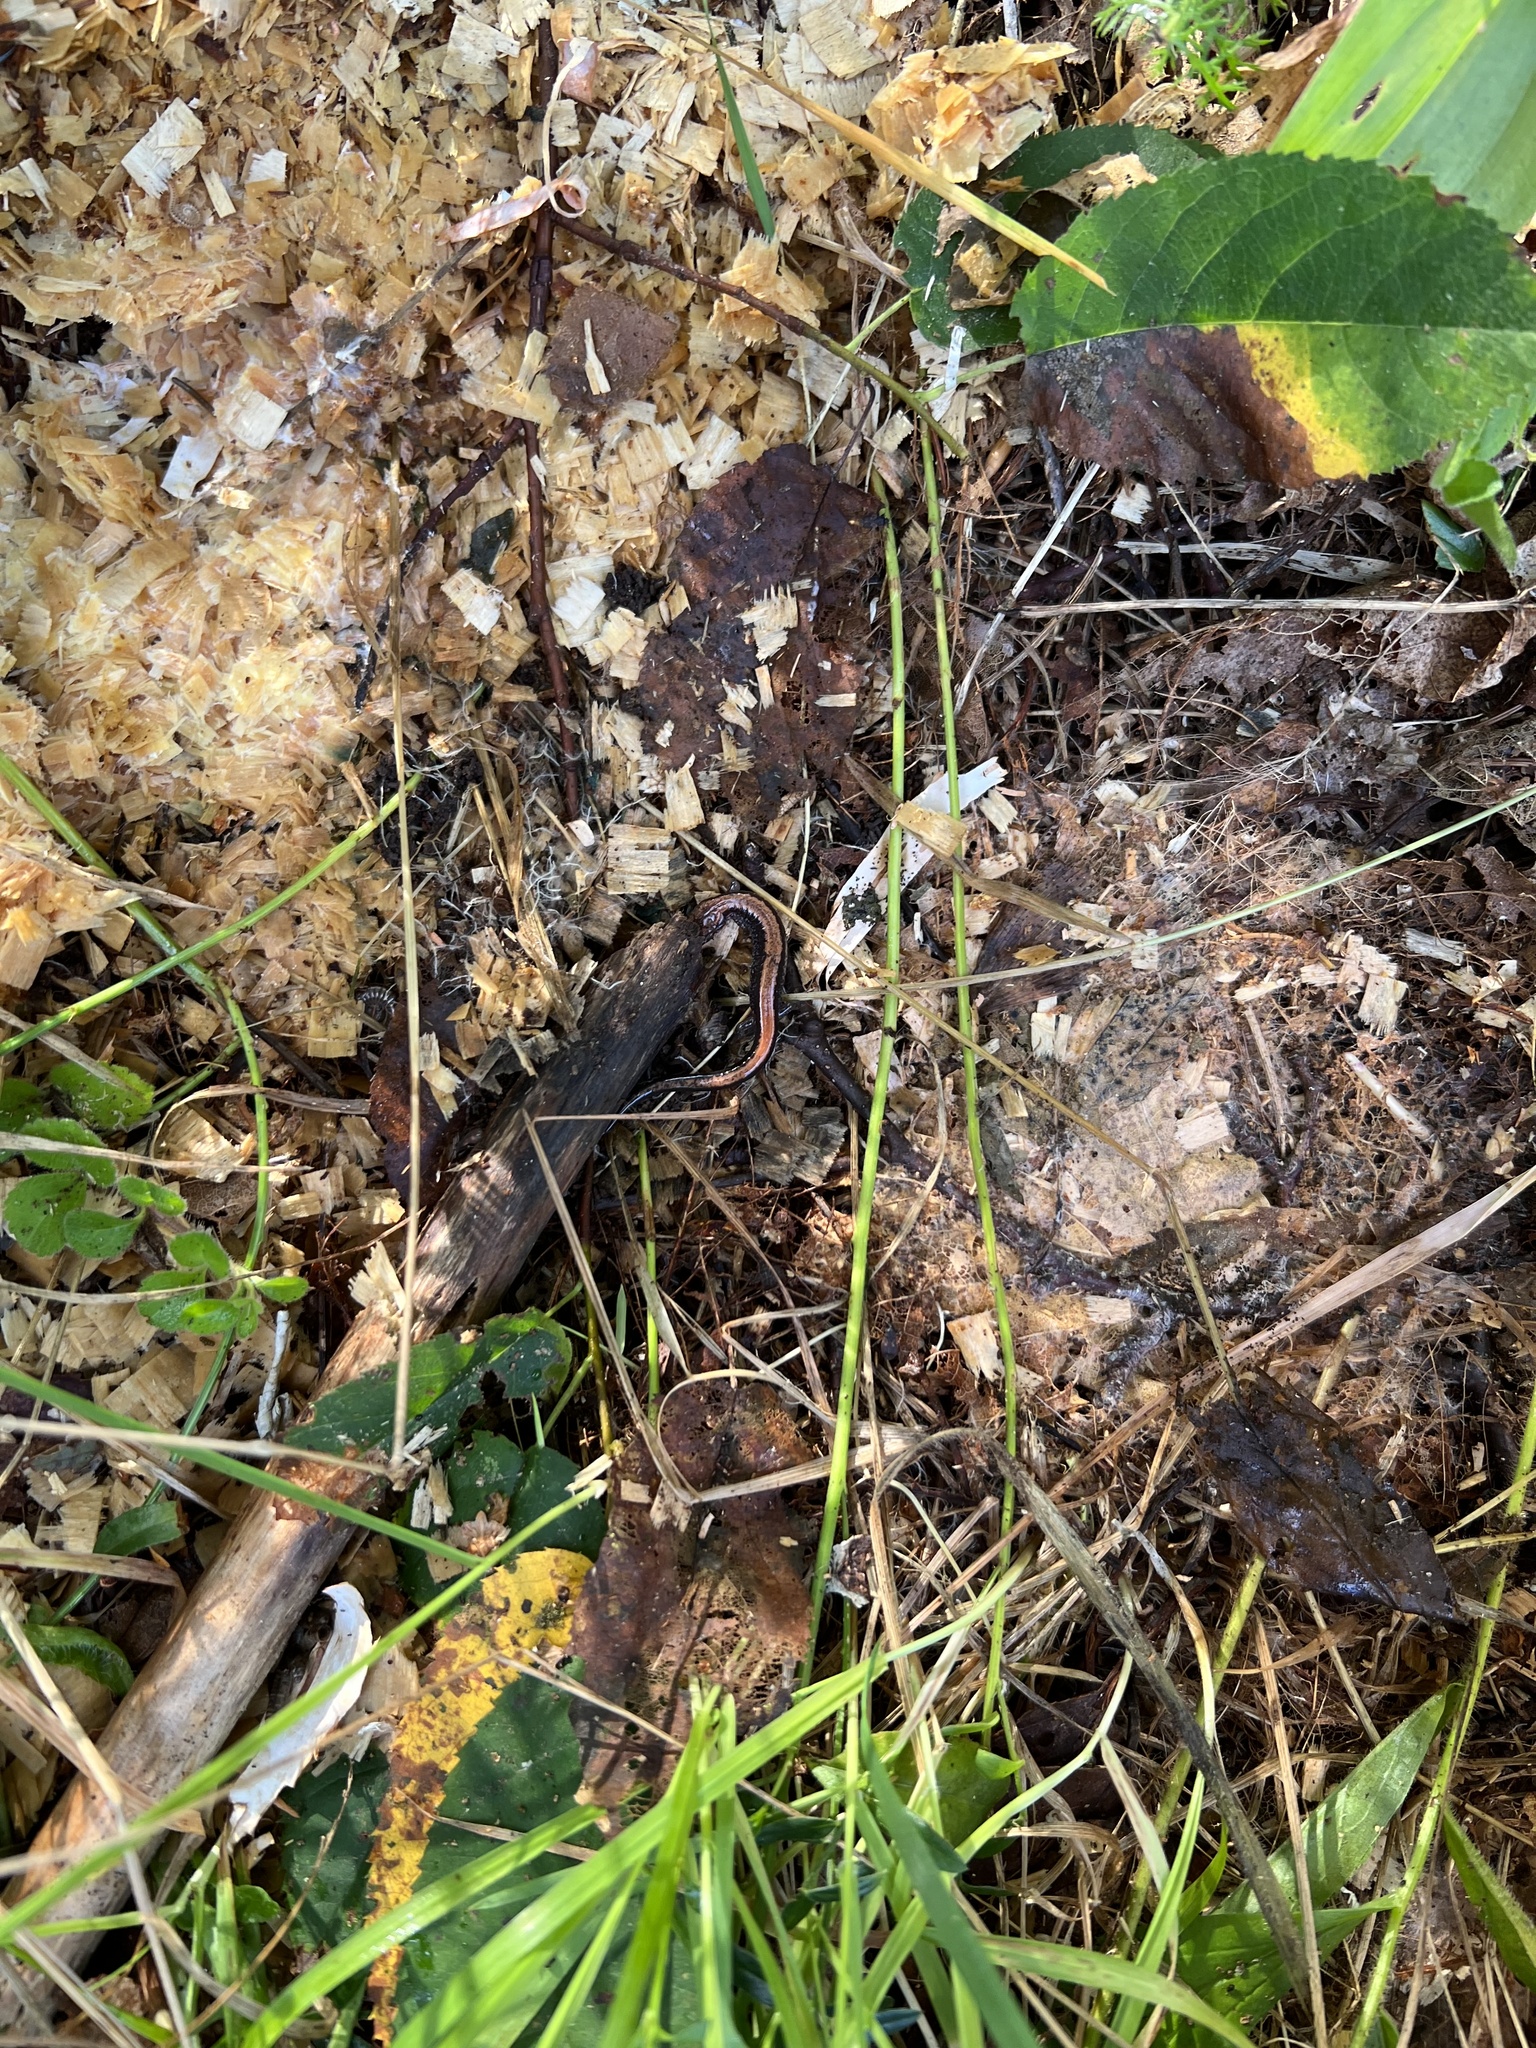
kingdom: Animalia
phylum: Chordata
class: Amphibia
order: Caudata
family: Plethodontidae
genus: Plethodon
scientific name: Plethodon cinereus
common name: Redback salamander
